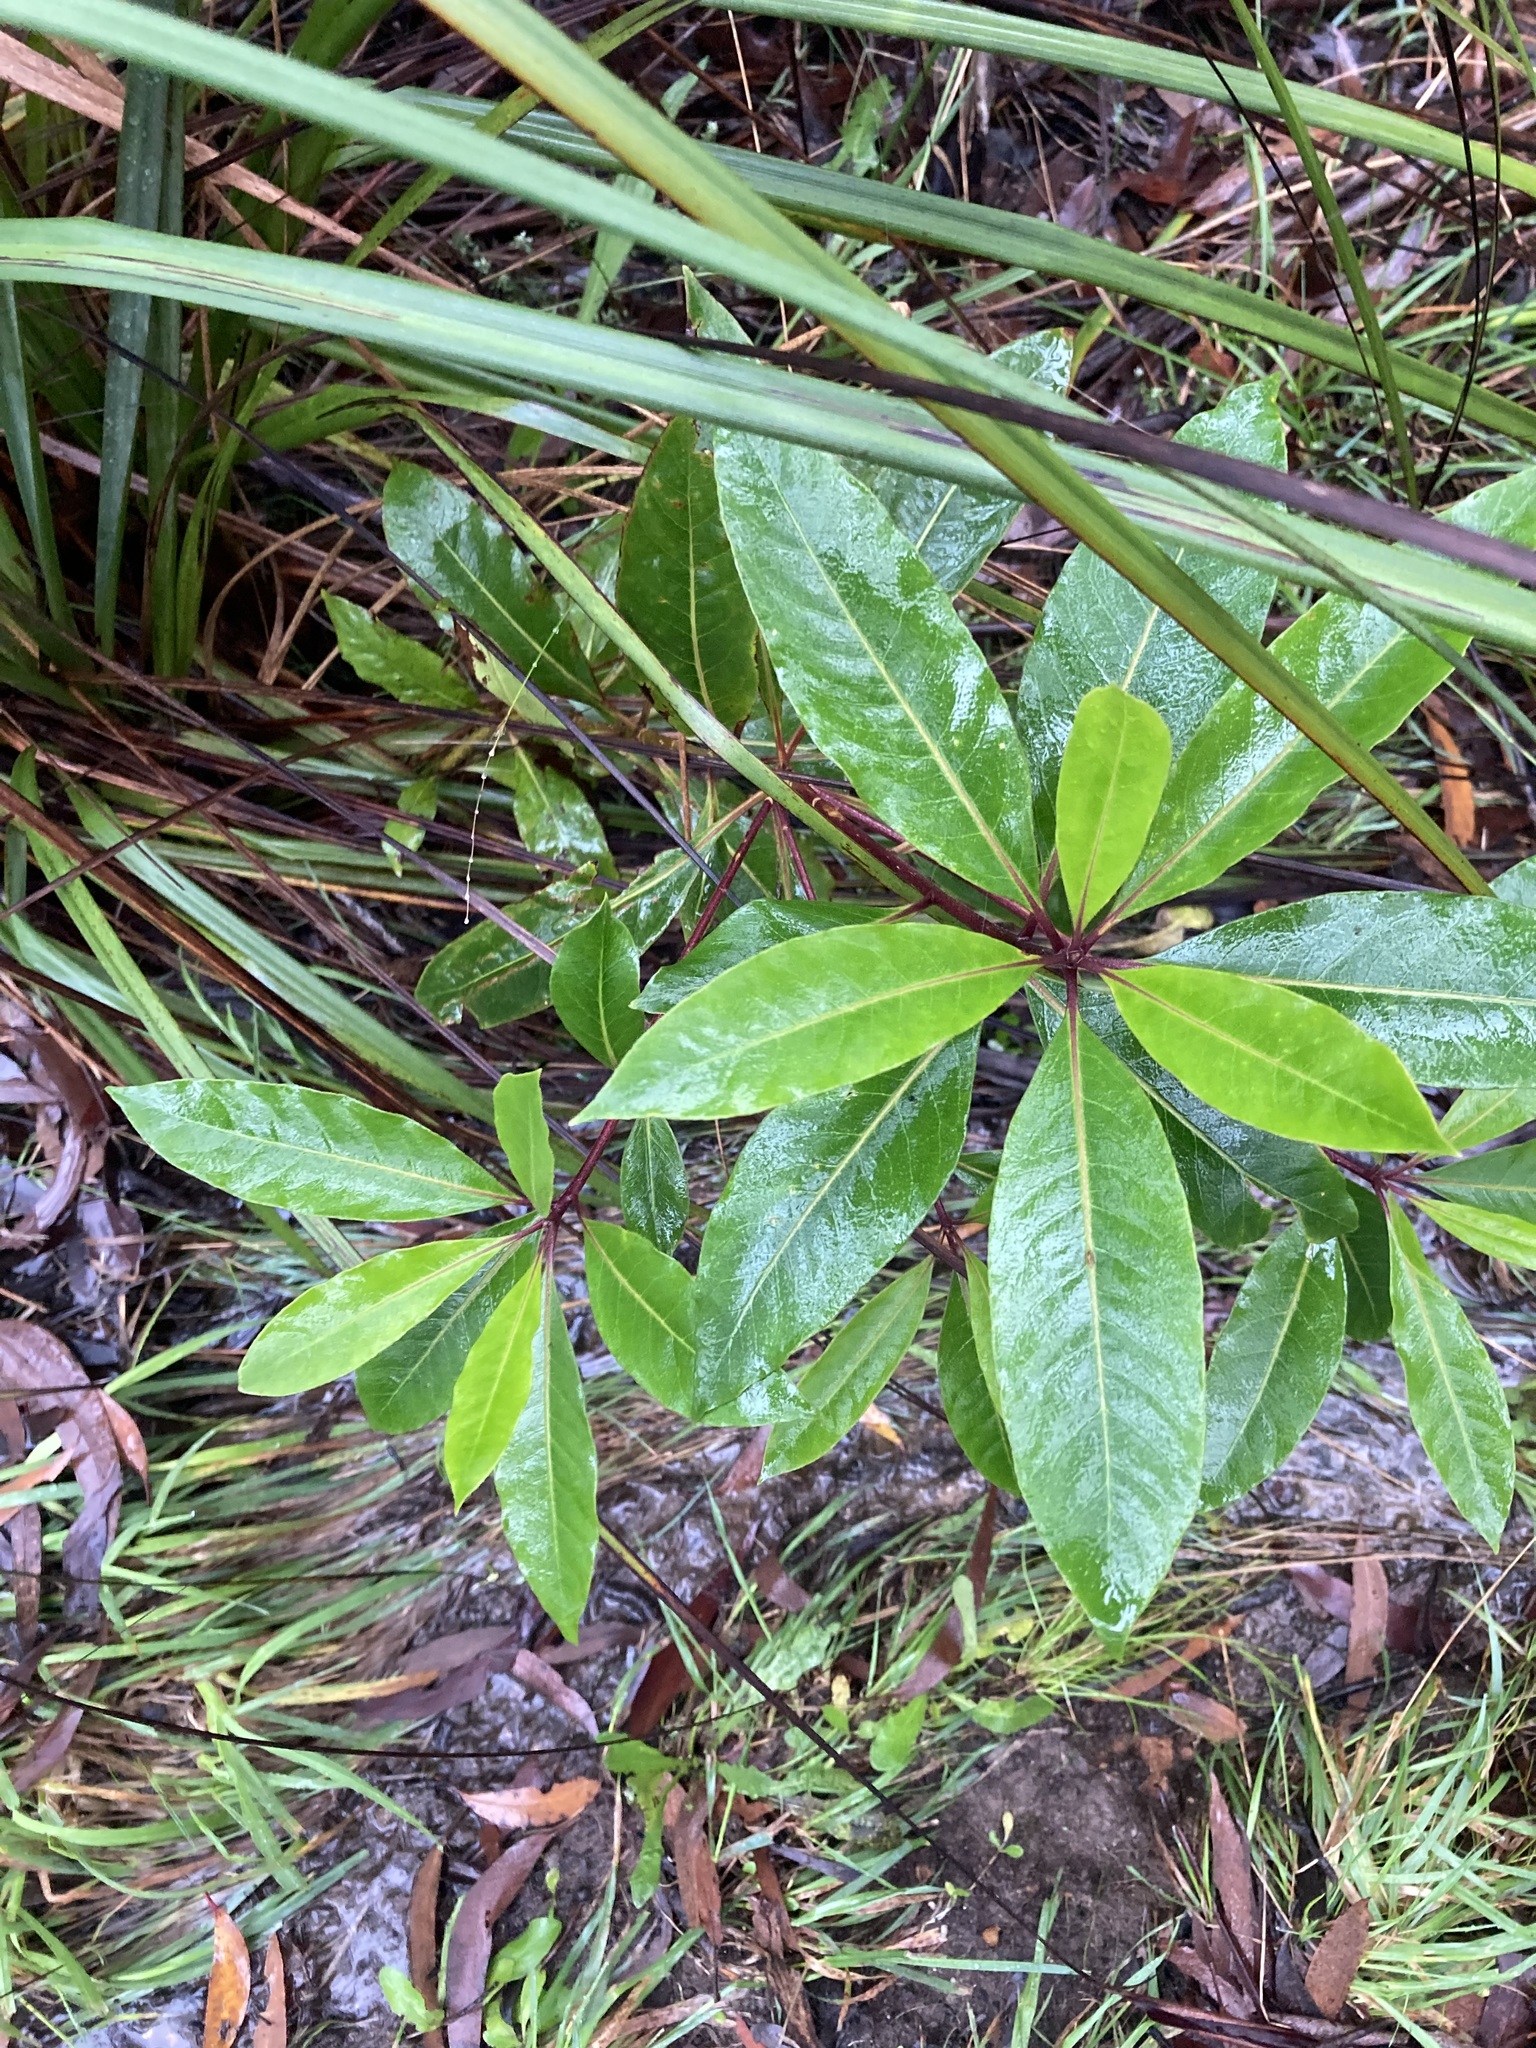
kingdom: Plantae
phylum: Tracheophyta
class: Magnoliopsida
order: Apiales
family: Pittosporaceae
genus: Pittosporum
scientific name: Pittosporum undulatum
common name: Australian cheesewood
